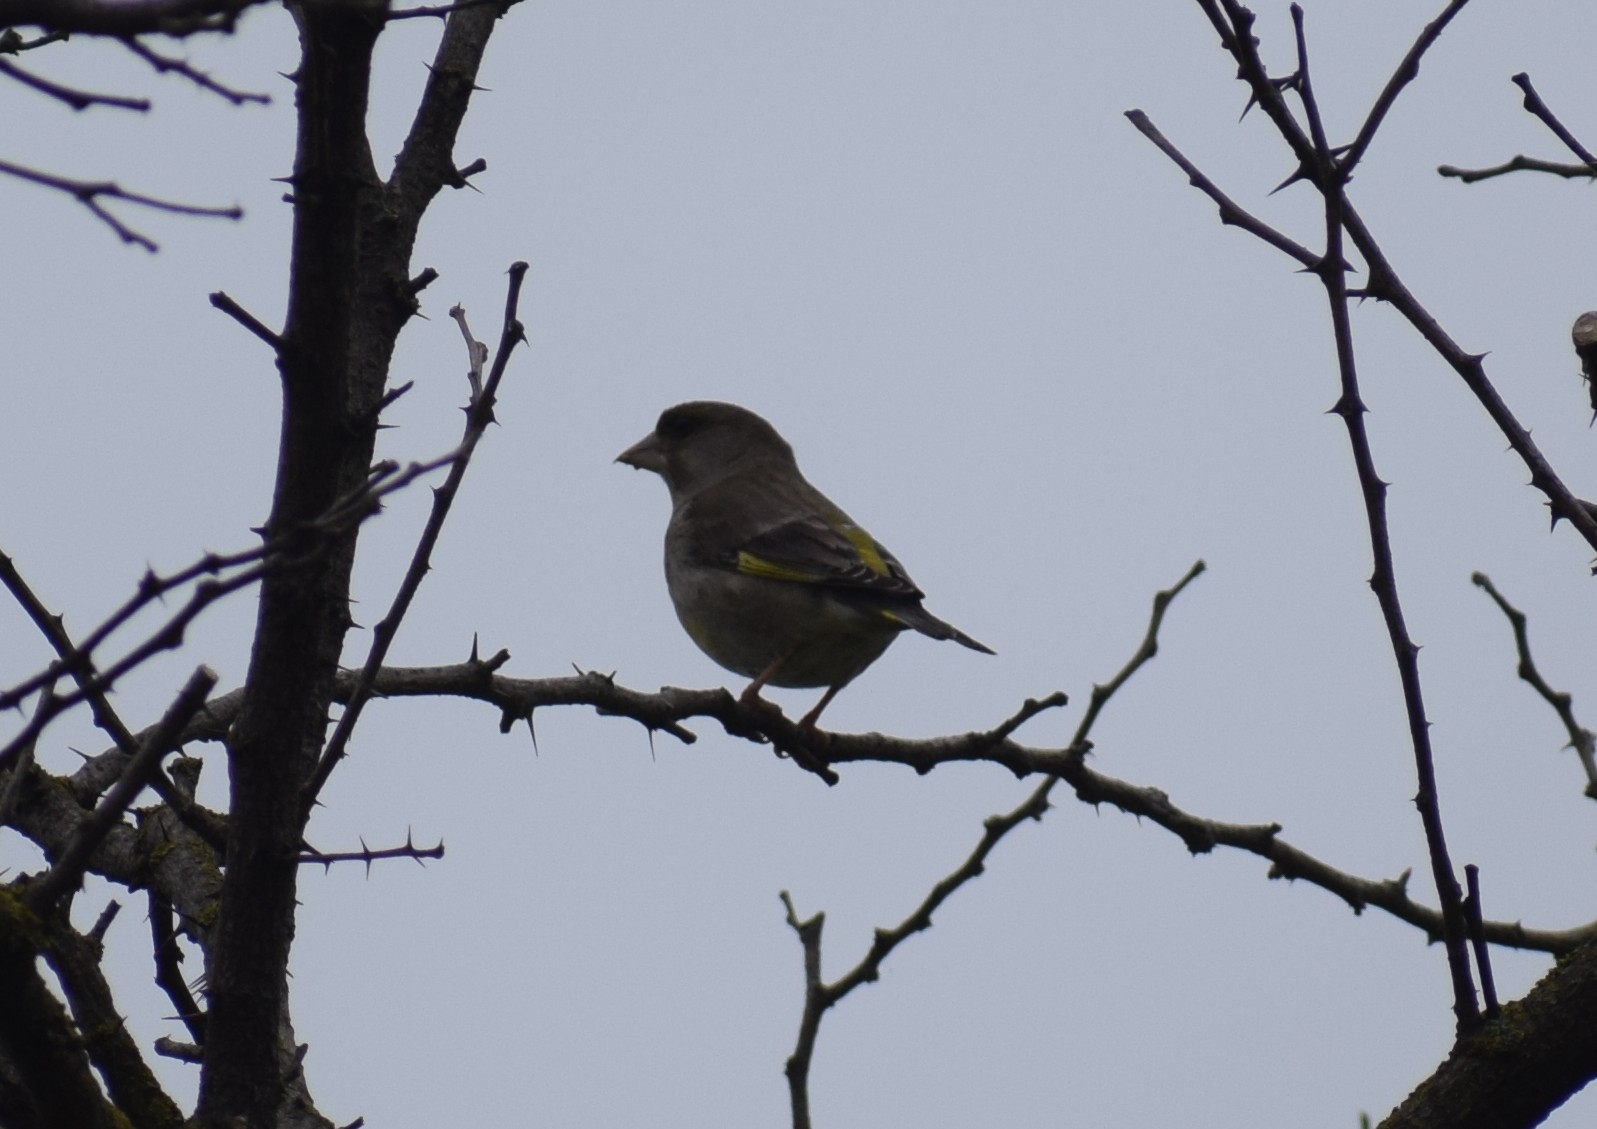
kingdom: Plantae
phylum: Tracheophyta
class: Liliopsida
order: Poales
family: Poaceae
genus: Chloris
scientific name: Chloris chloris
